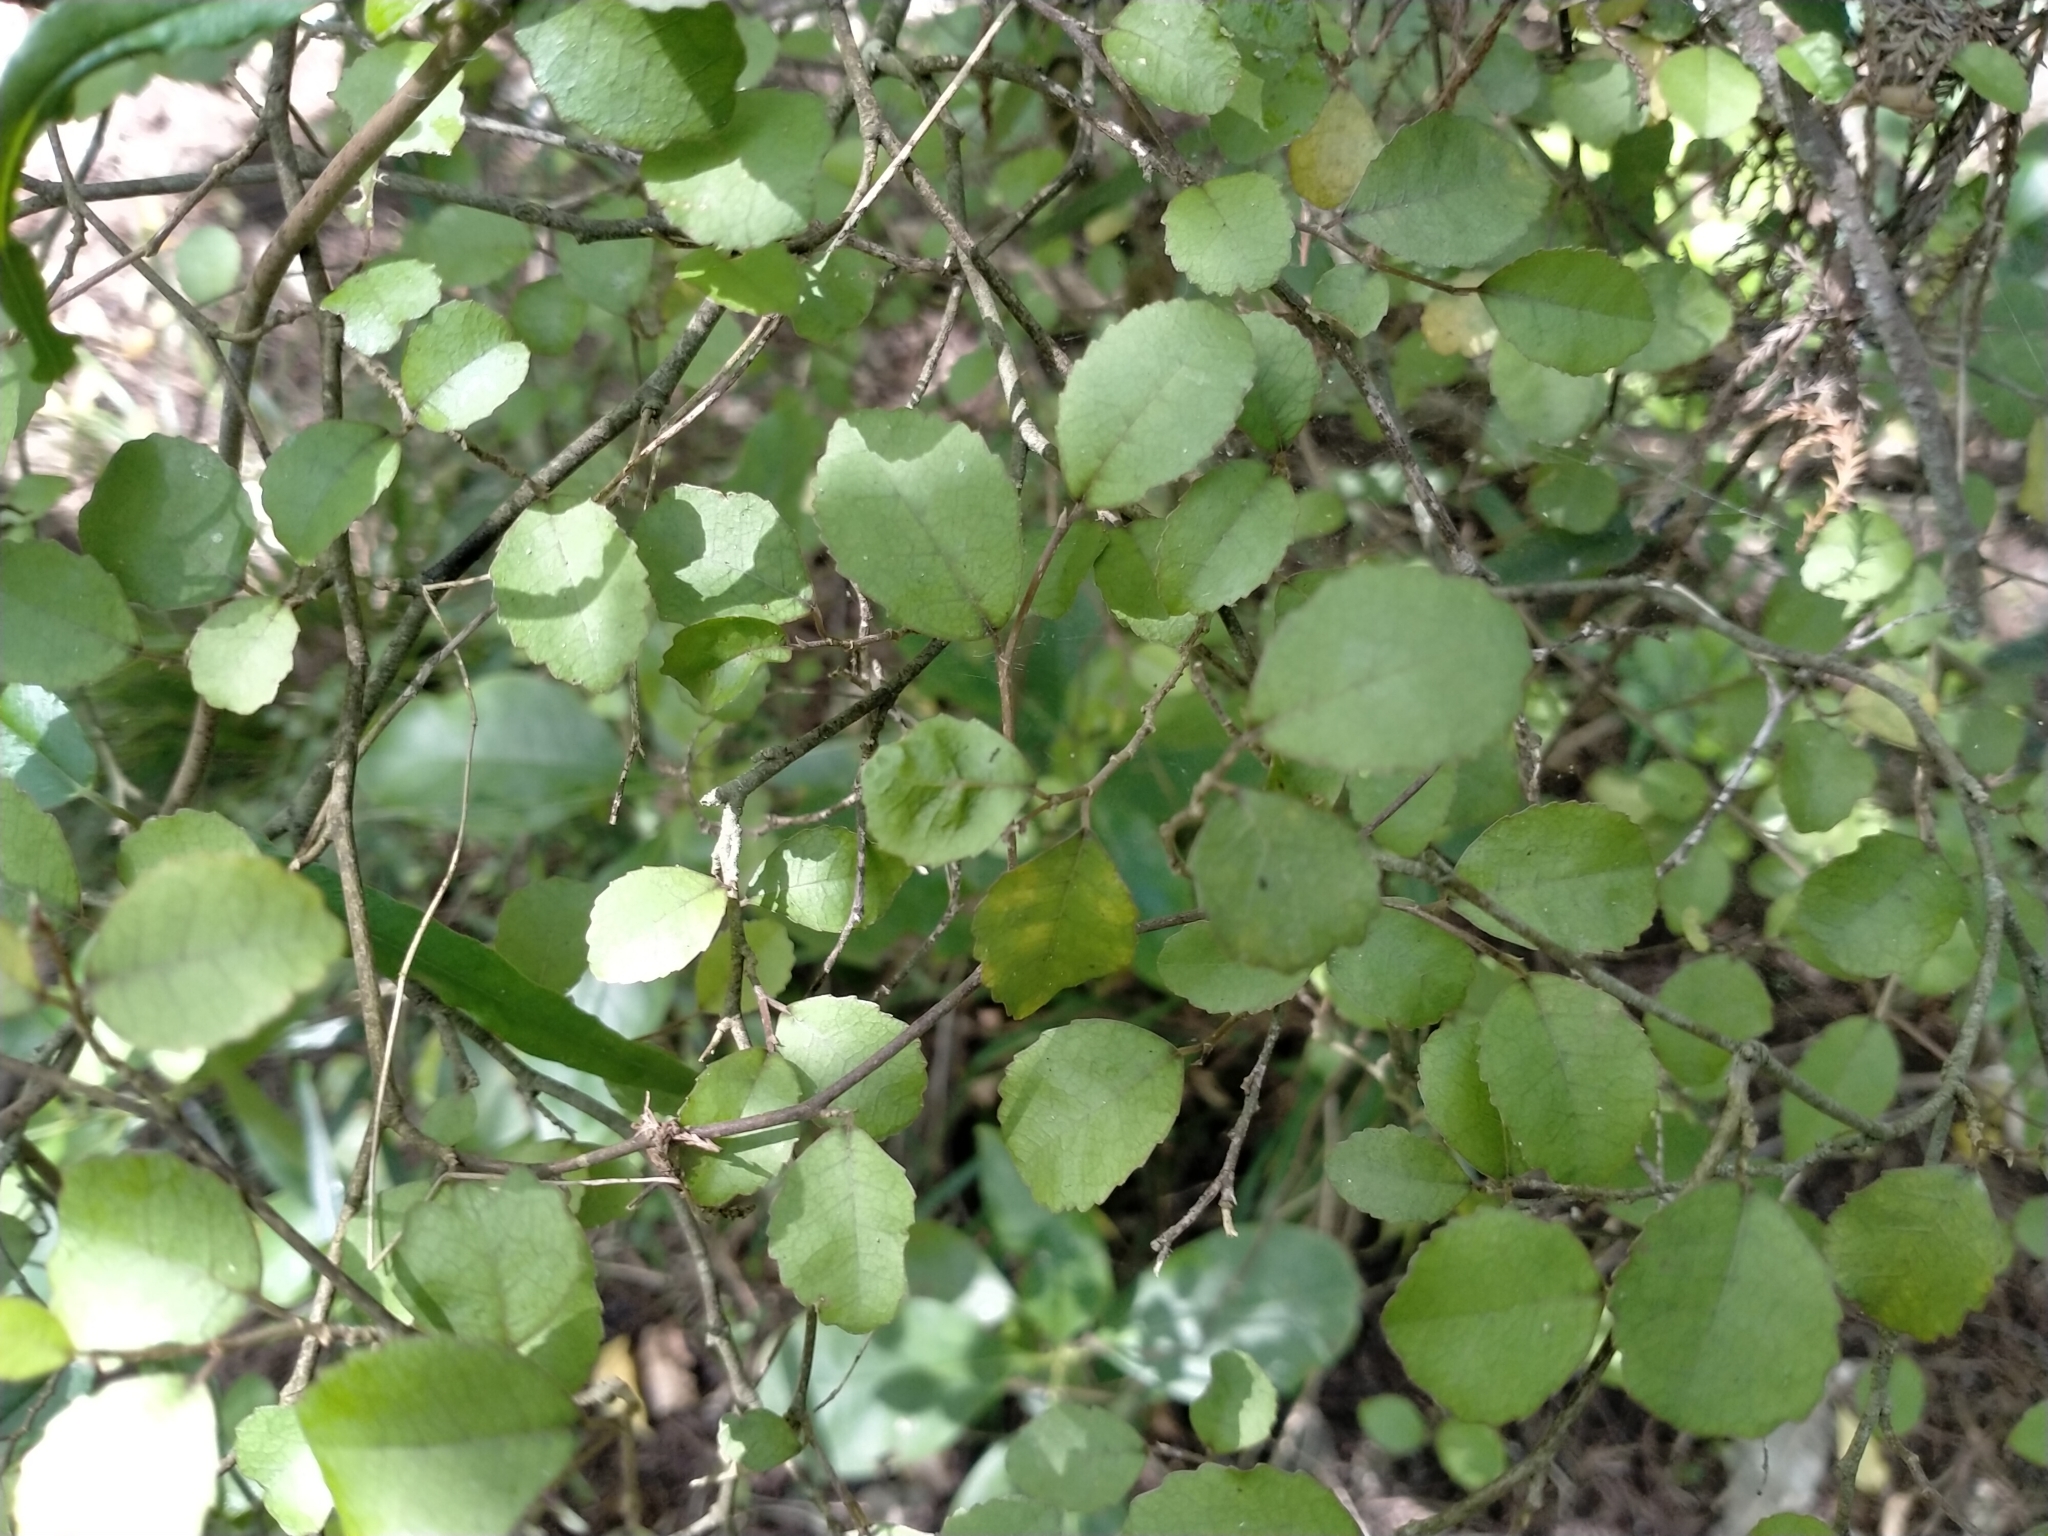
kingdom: Plantae
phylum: Tracheophyta
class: Magnoliopsida
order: Rosales
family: Moraceae
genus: Paratrophis
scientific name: Paratrophis microphylla
